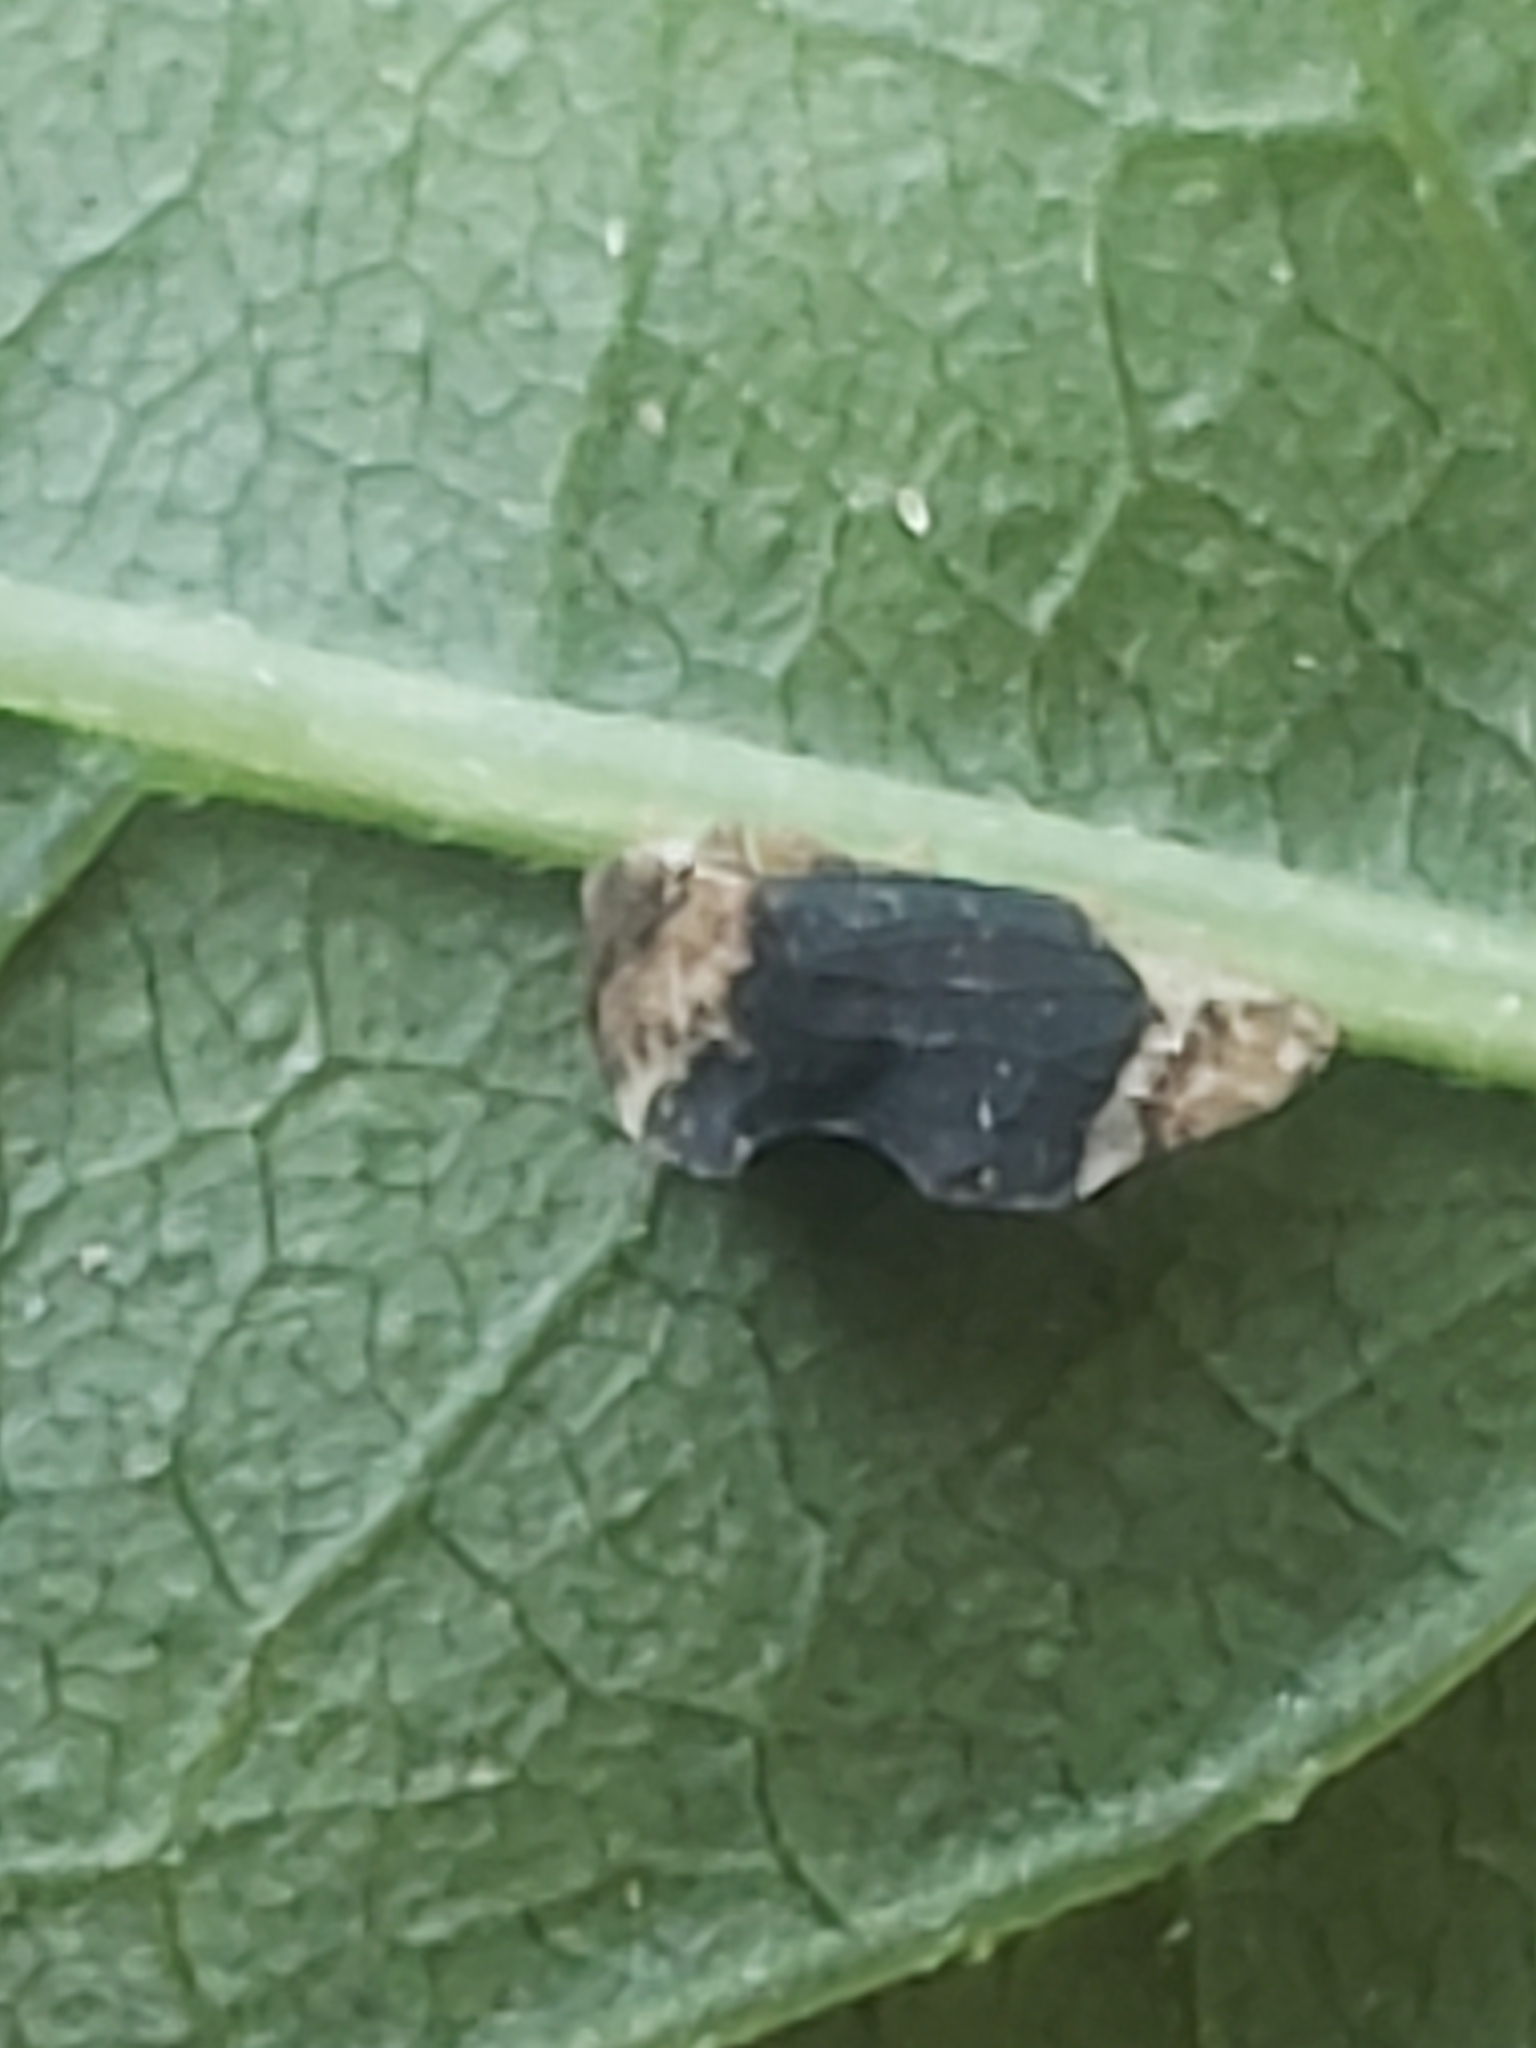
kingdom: Animalia
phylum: Arthropoda
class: Insecta
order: Hemiptera
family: Membracidae
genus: Entylia
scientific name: Entylia carinata
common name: Keeled treehopper
